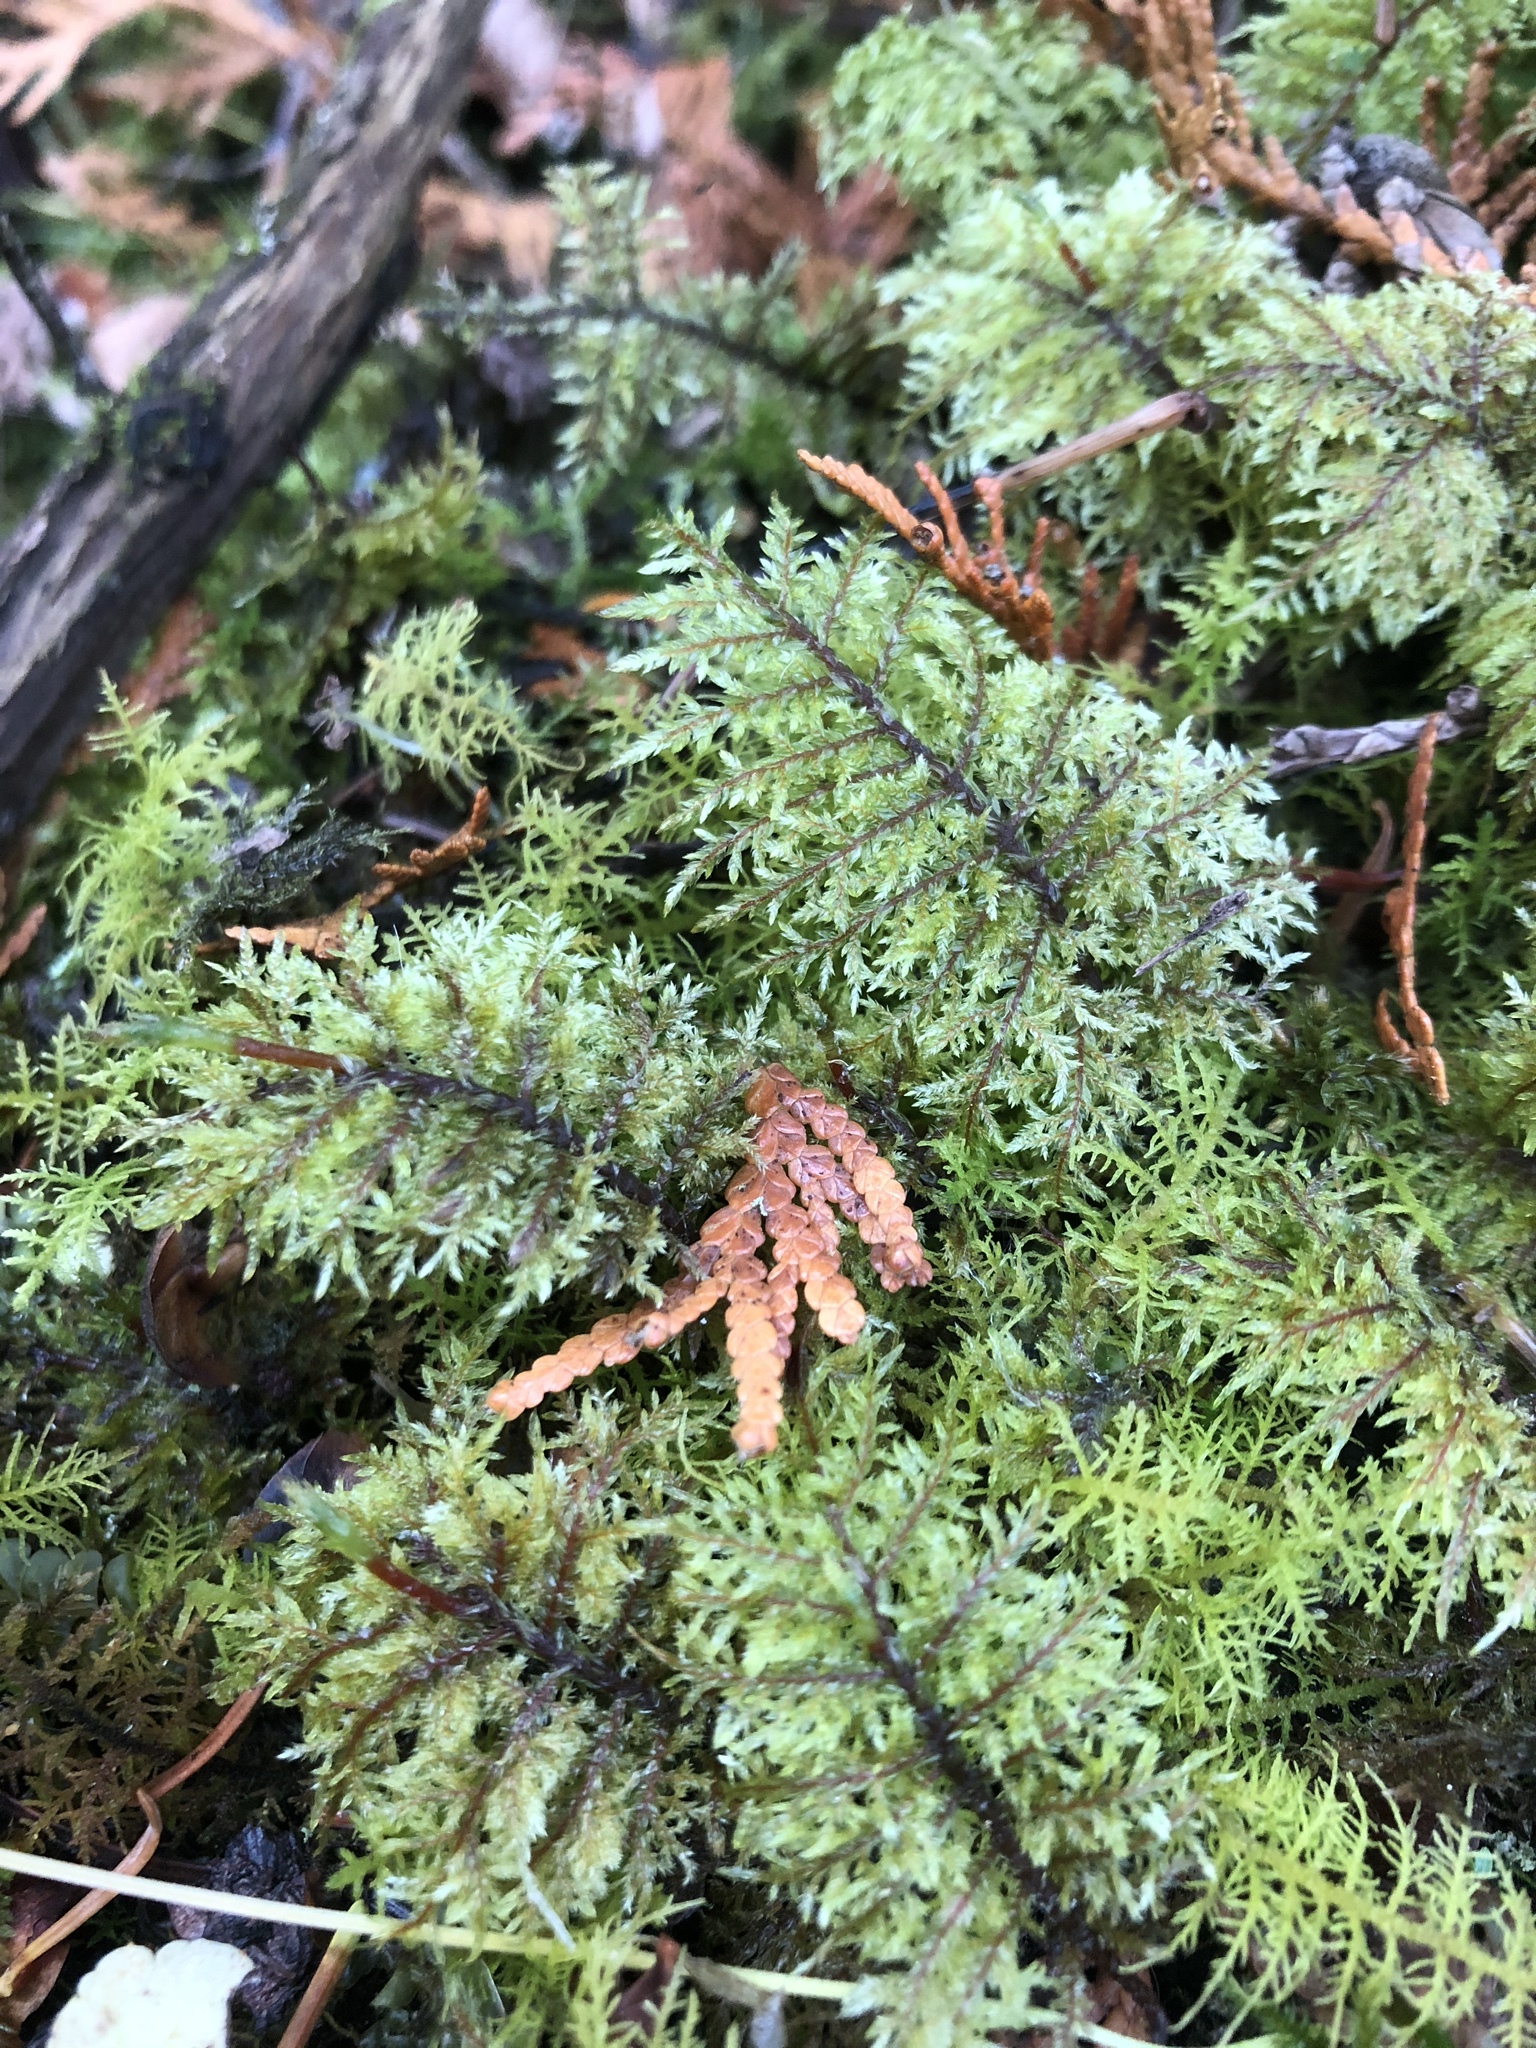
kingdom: Plantae
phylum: Bryophyta
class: Bryopsida
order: Hypnales
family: Hylocomiaceae
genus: Hylocomium
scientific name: Hylocomium splendens
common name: Stairstep moss
